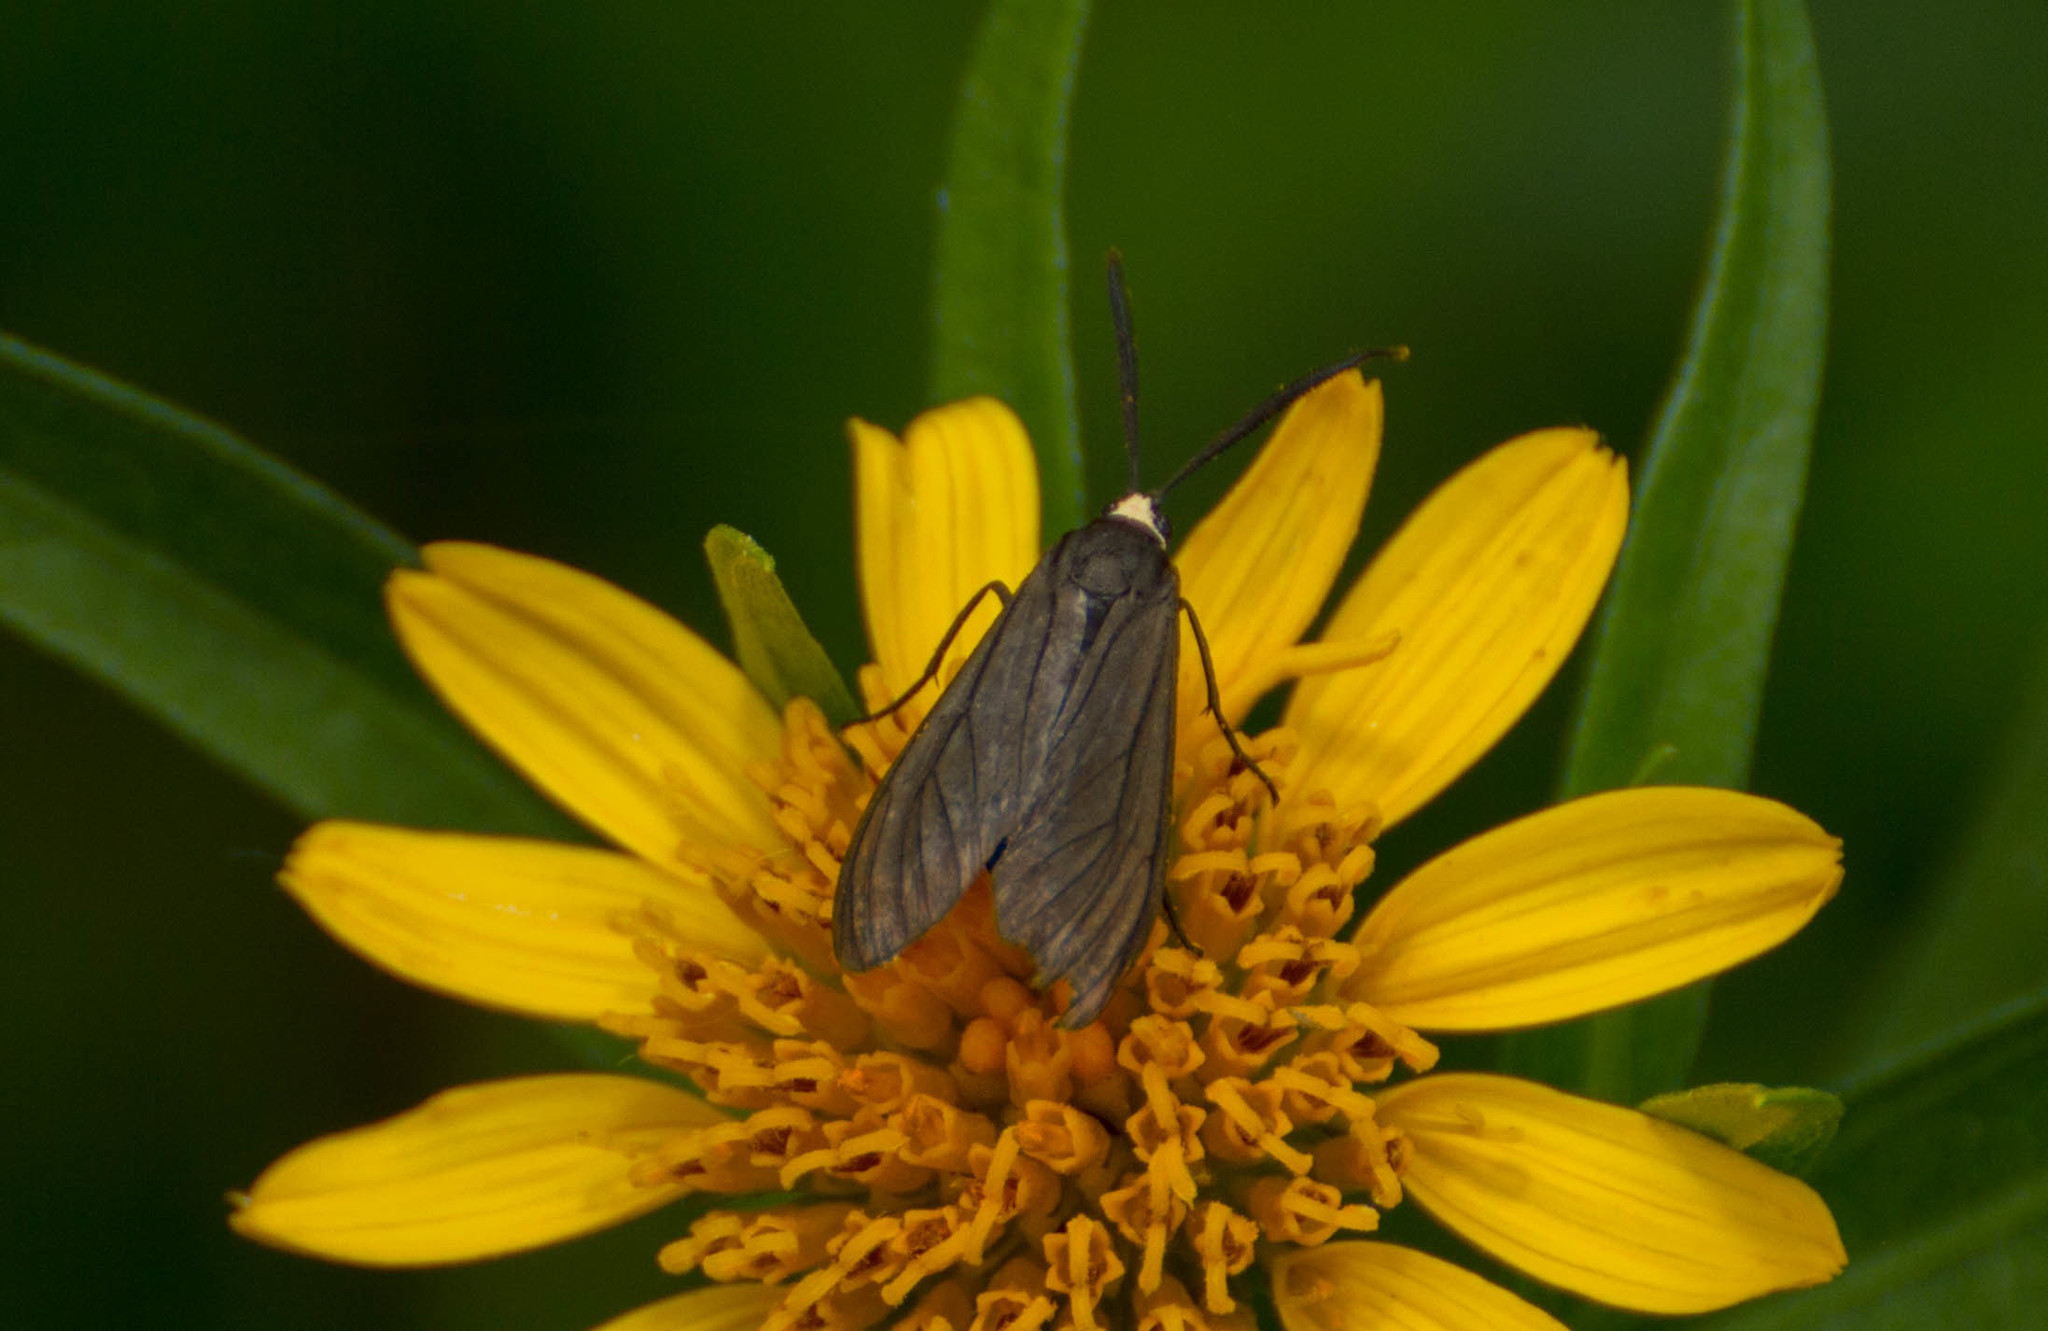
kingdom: Animalia
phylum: Arthropoda
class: Insecta
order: Lepidoptera
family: Erebidae
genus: Ctenucha
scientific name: Ctenucha rubriceps
